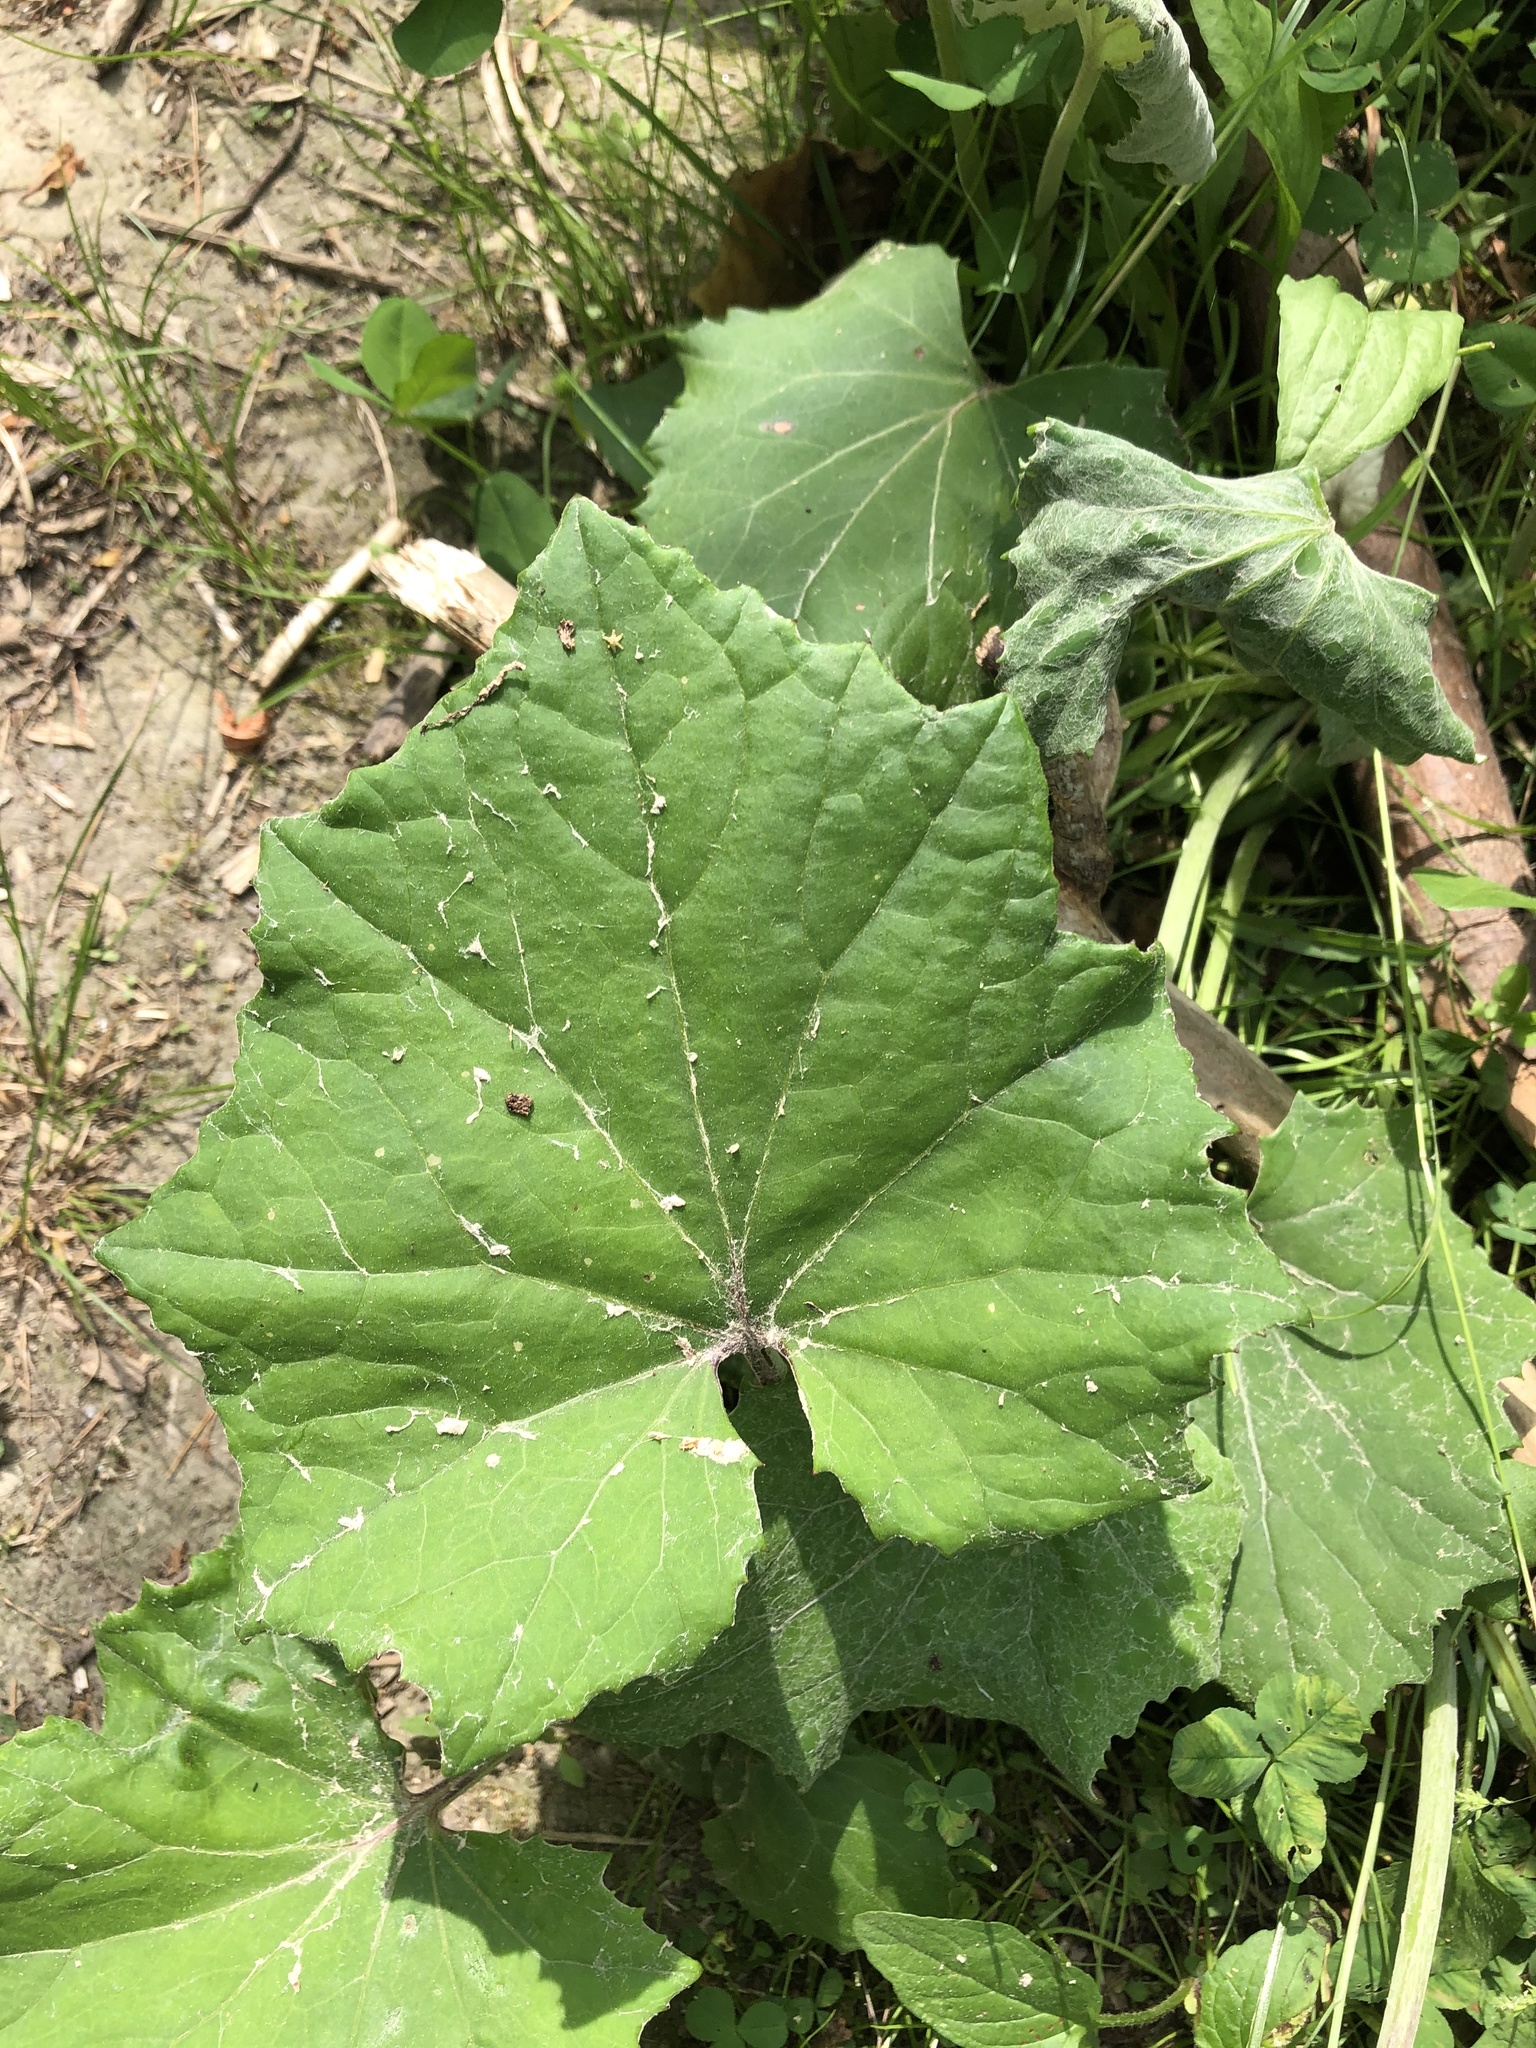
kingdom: Plantae
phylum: Tracheophyta
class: Magnoliopsida
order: Asterales
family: Asteraceae
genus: Tussilago
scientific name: Tussilago farfara
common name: Coltsfoot
